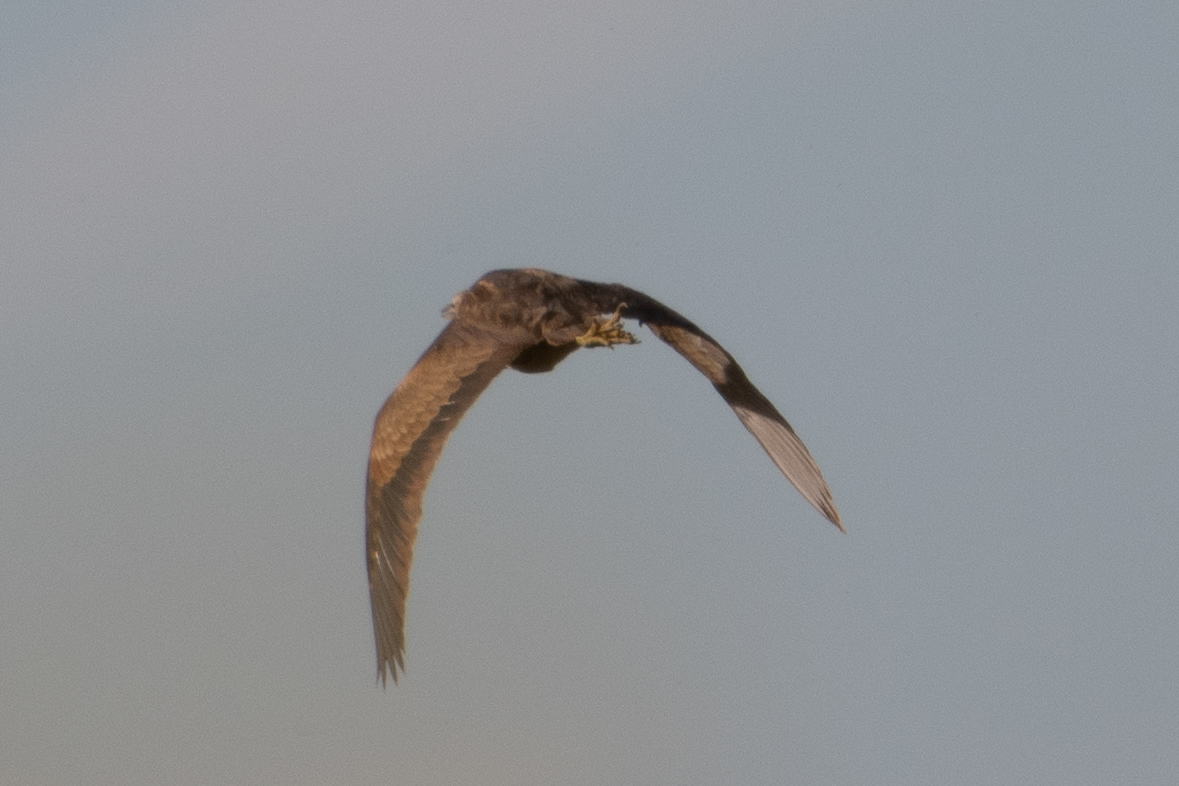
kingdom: Animalia
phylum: Chordata
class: Aves
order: Pelecaniformes
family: Ardeidae
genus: Botaurus
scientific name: Botaurus lentiginosus
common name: American bittern
